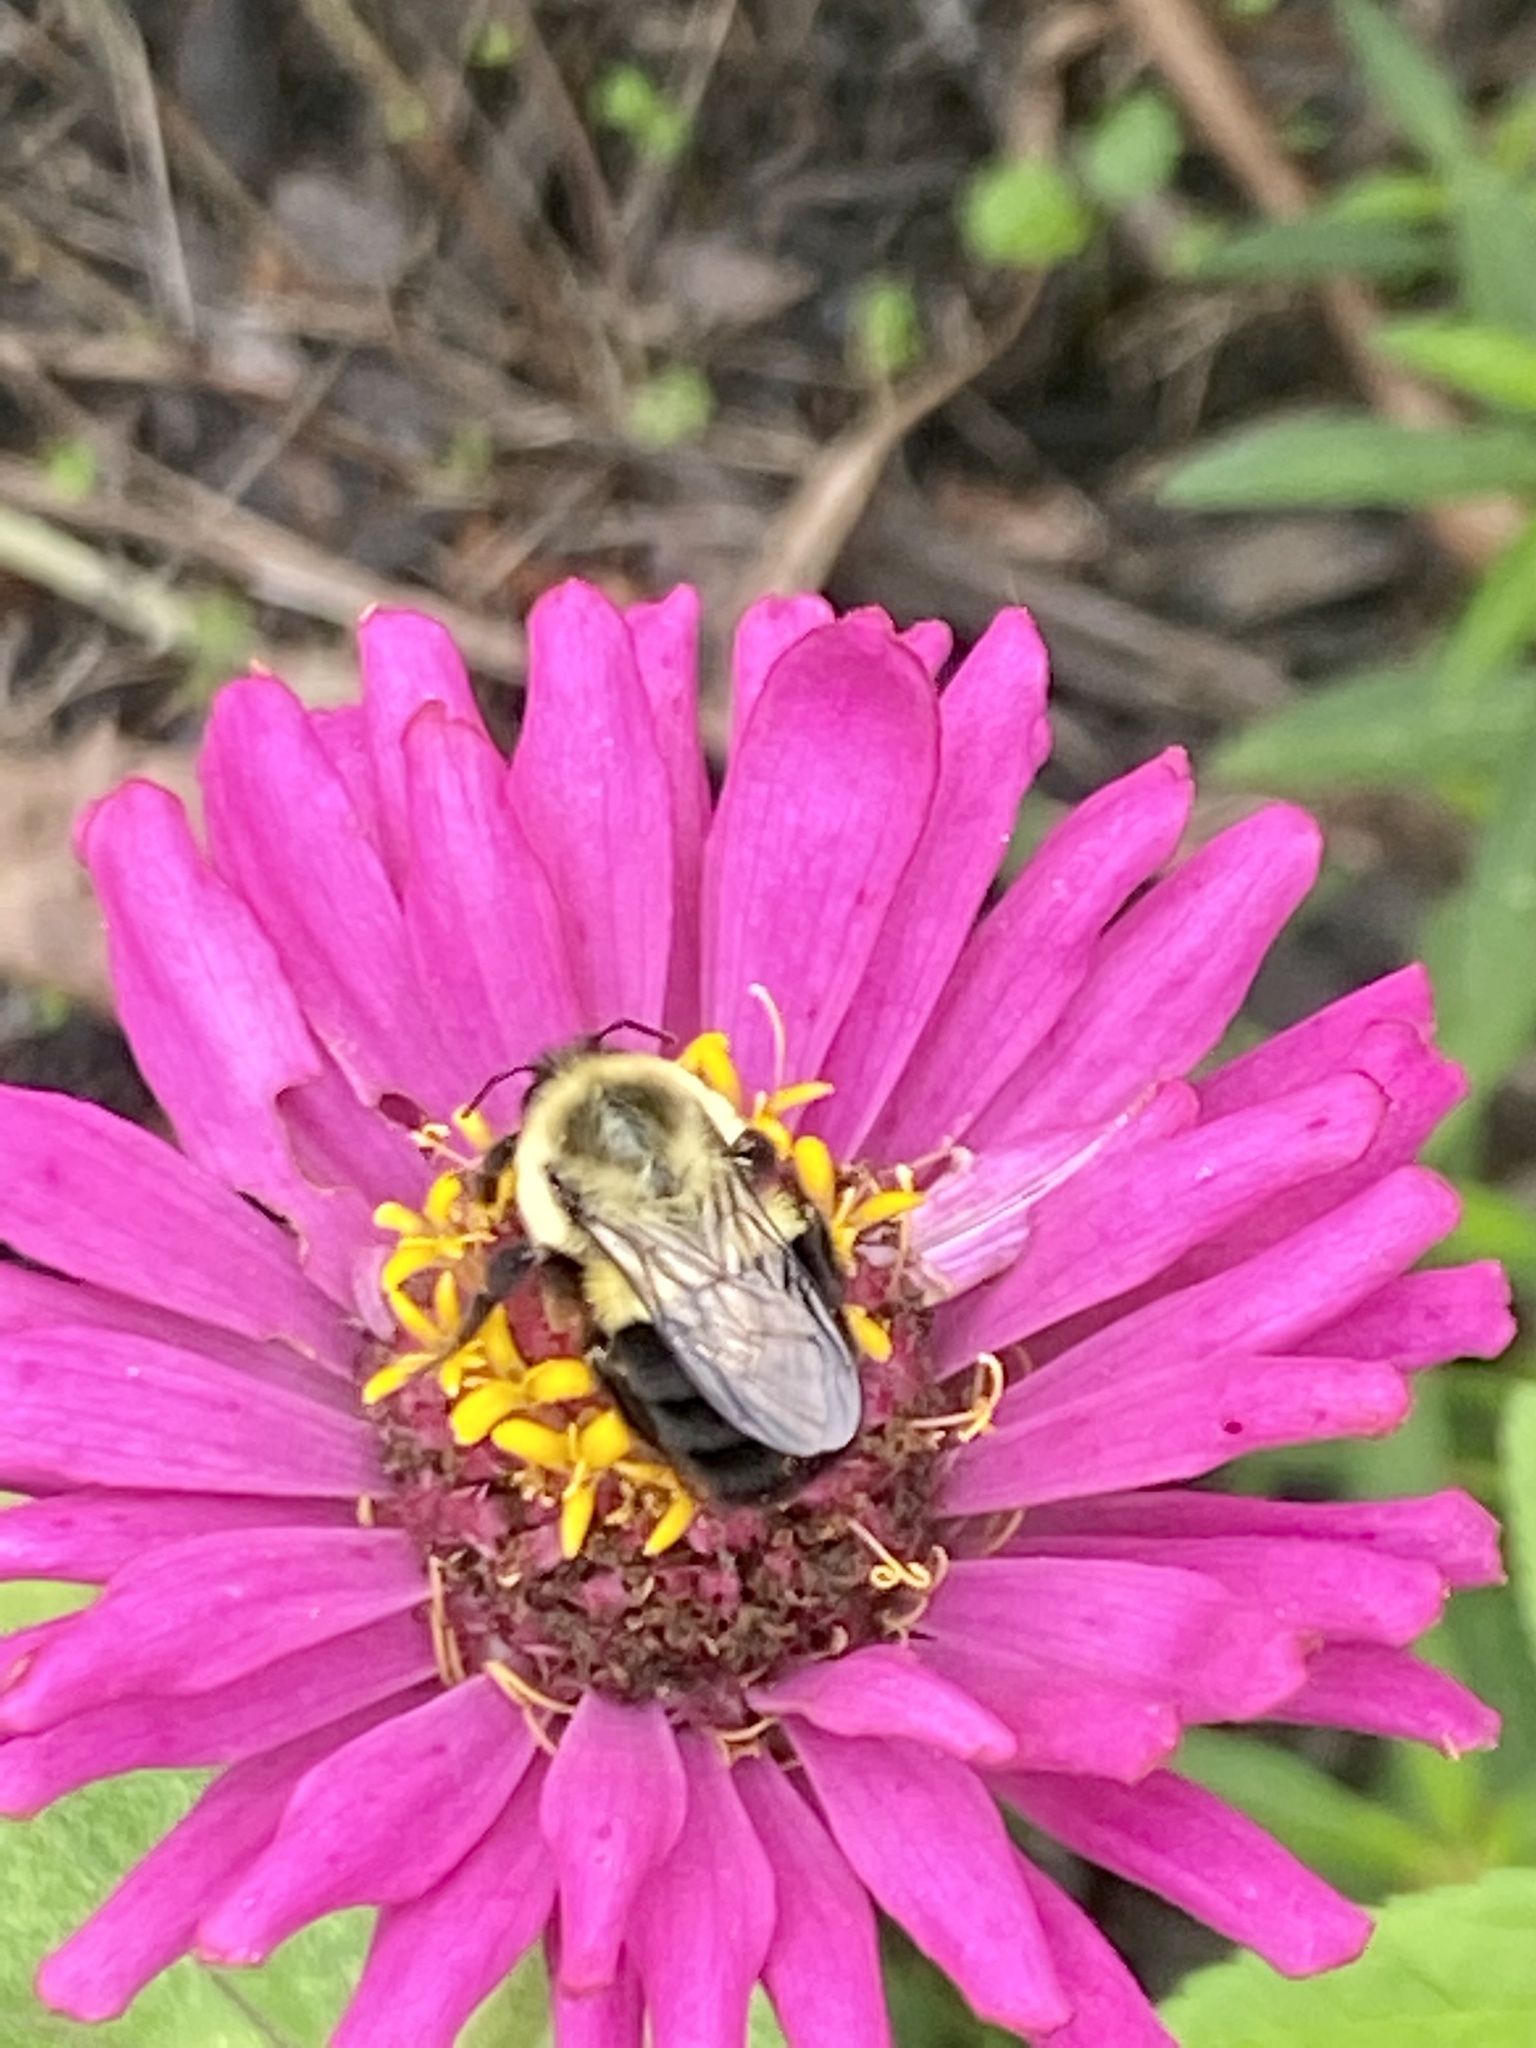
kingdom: Animalia
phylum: Arthropoda
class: Insecta
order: Hymenoptera
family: Apidae
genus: Bombus
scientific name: Bombus impatiens
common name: Common eastern bumble bee
